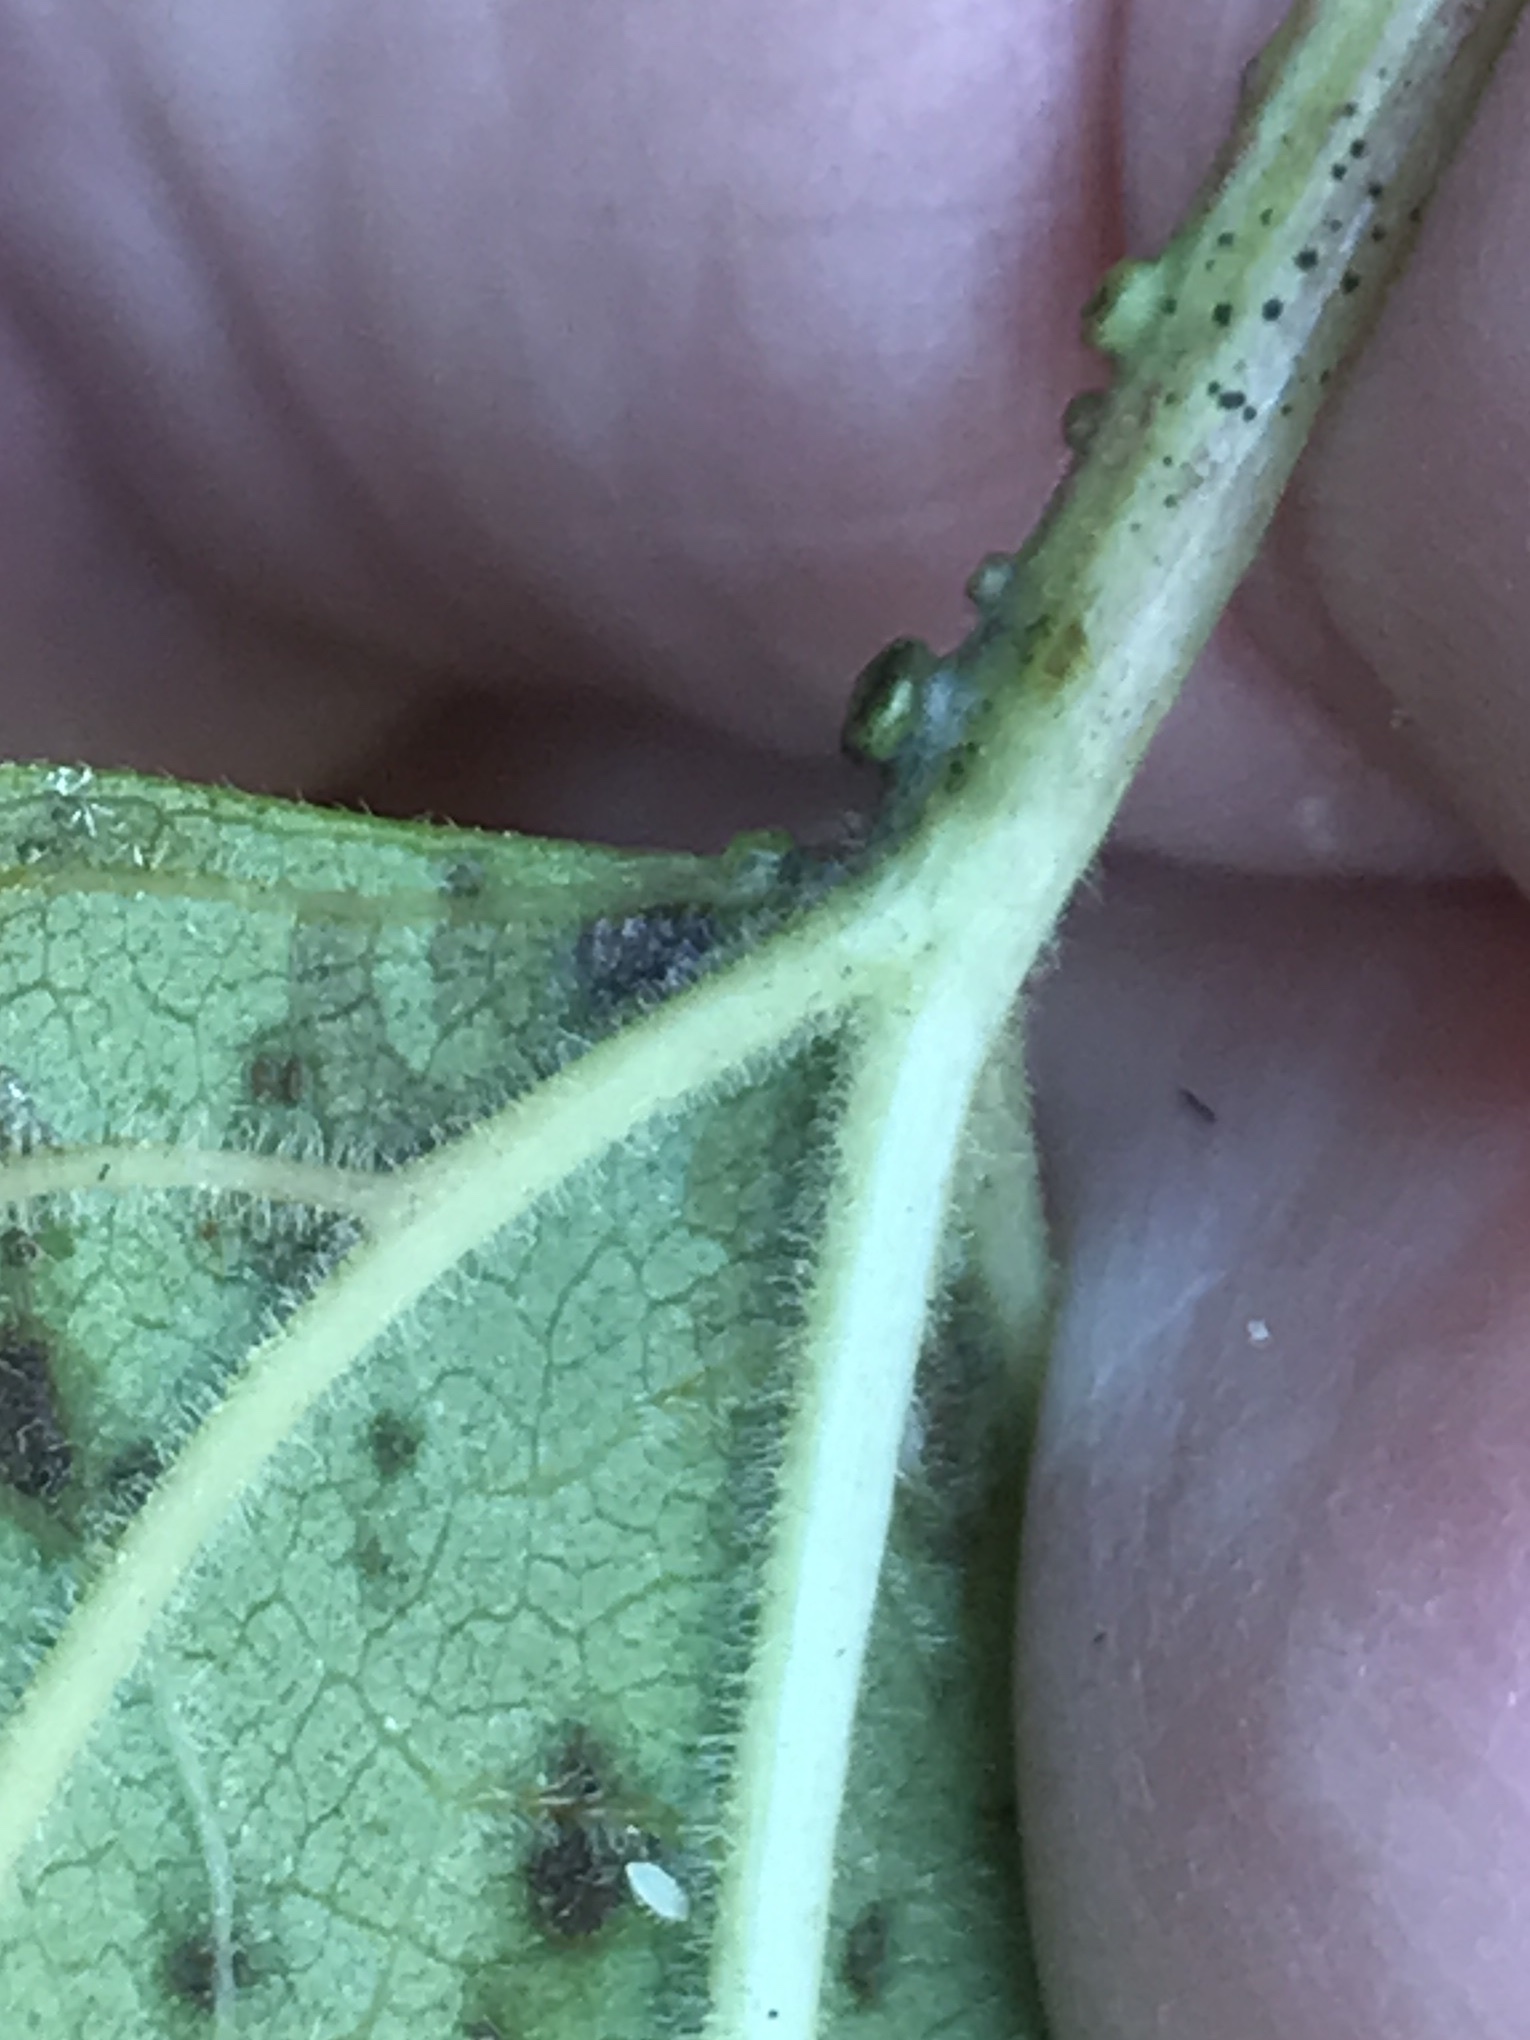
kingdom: Plantae
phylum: Tracheophyta
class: Magnoliopsida
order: Dipsacales
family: Viburnaceae
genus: Viburnum
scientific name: Viburnum opulus
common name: Guelder-rose
